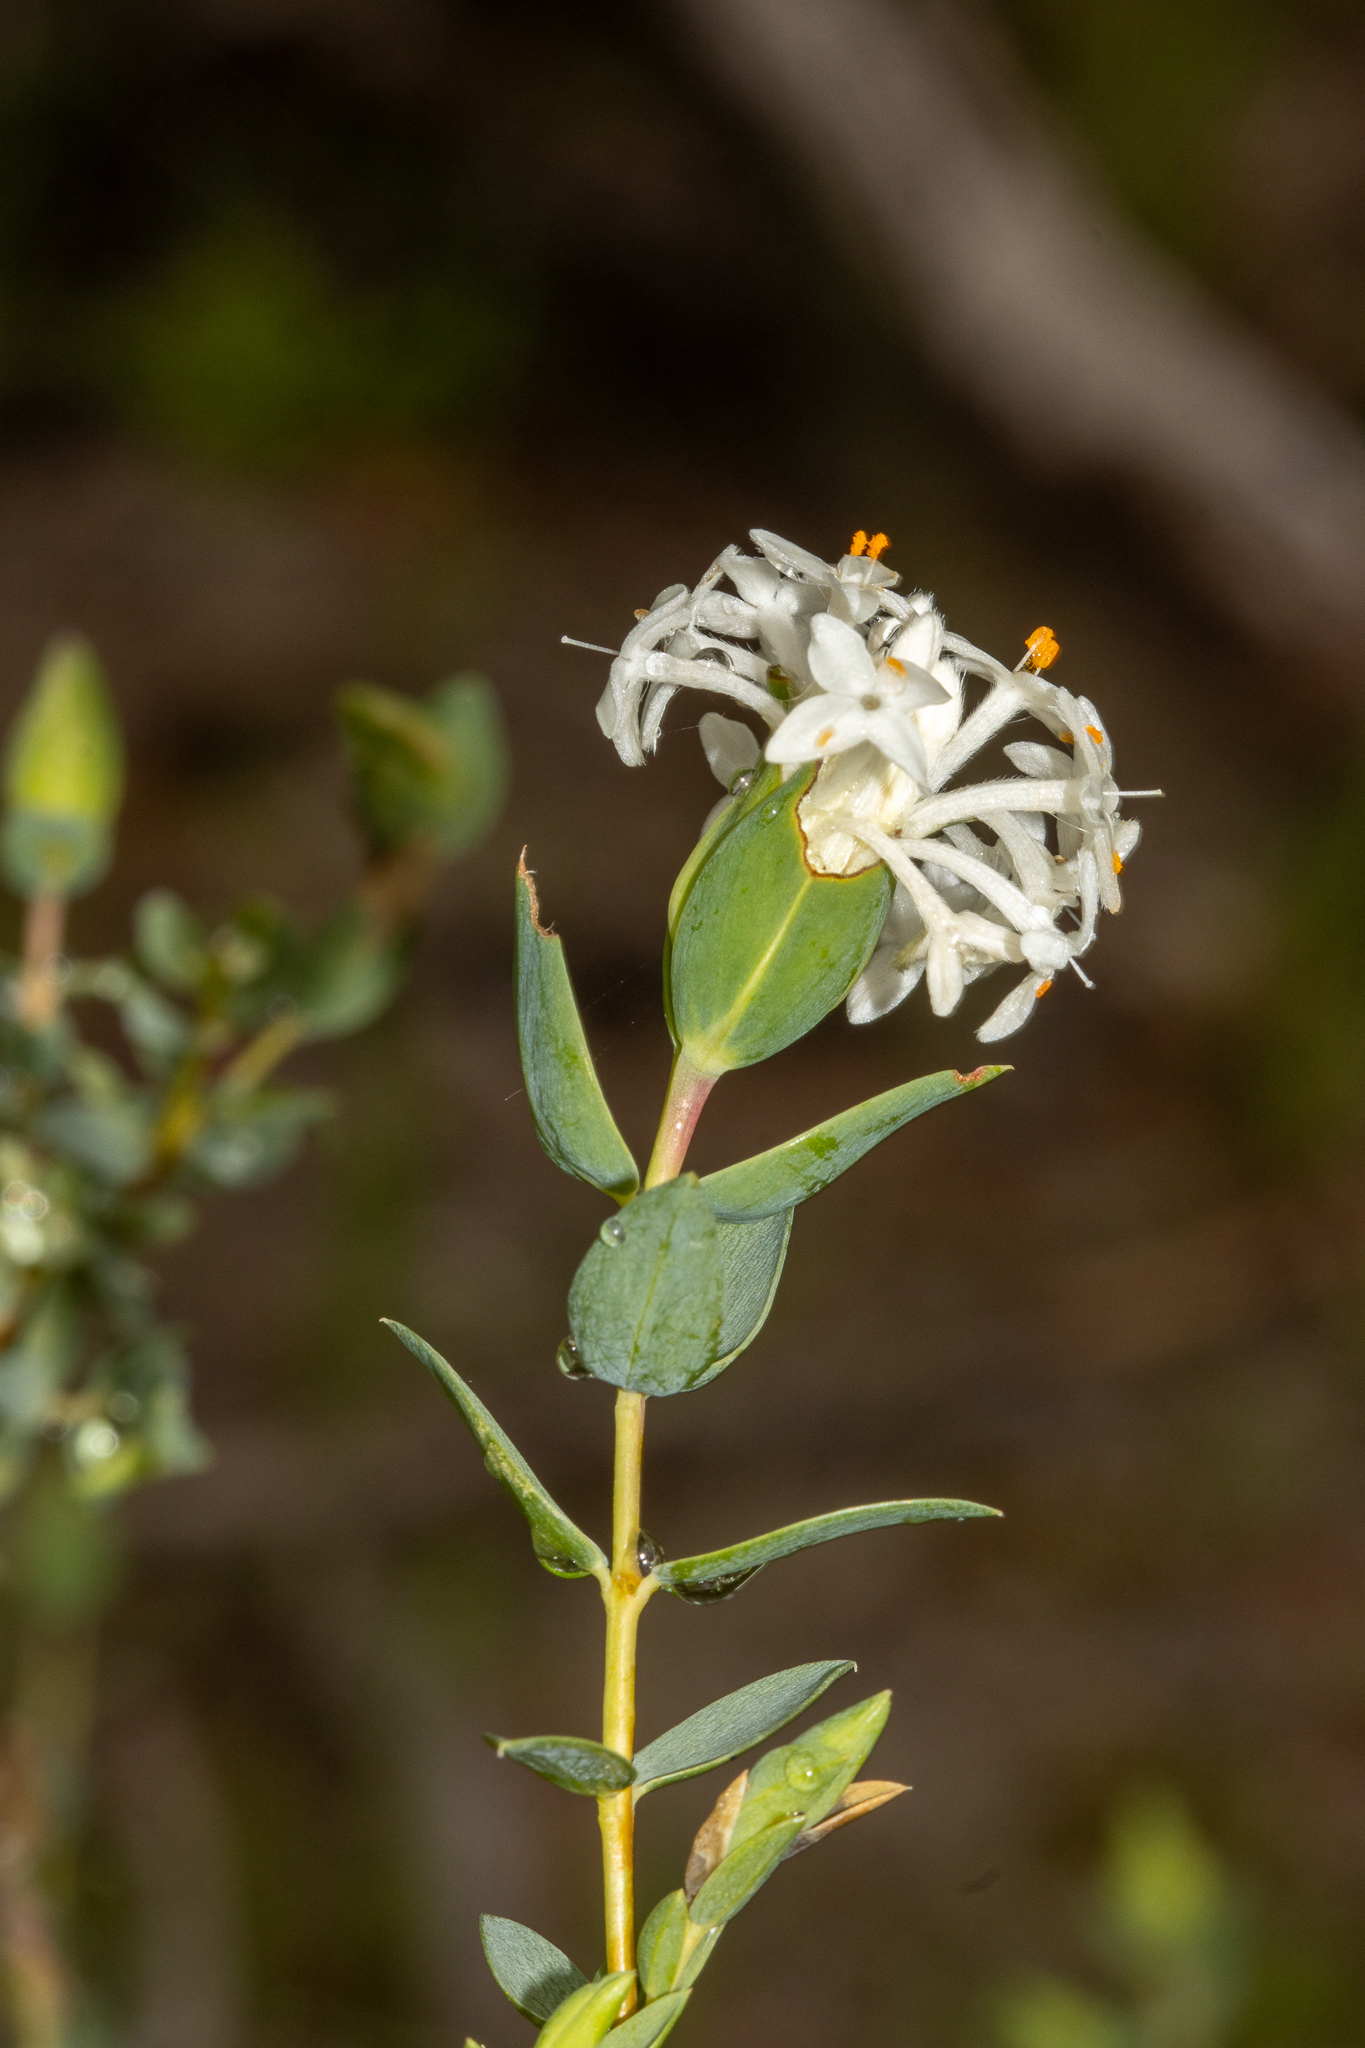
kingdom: Plantae
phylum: Tracheophyta
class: Magnoliopsida
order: Malvales
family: Thymelaeaceae
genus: Pimelea
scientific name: Pimelea glauca
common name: Smooth riceflower
